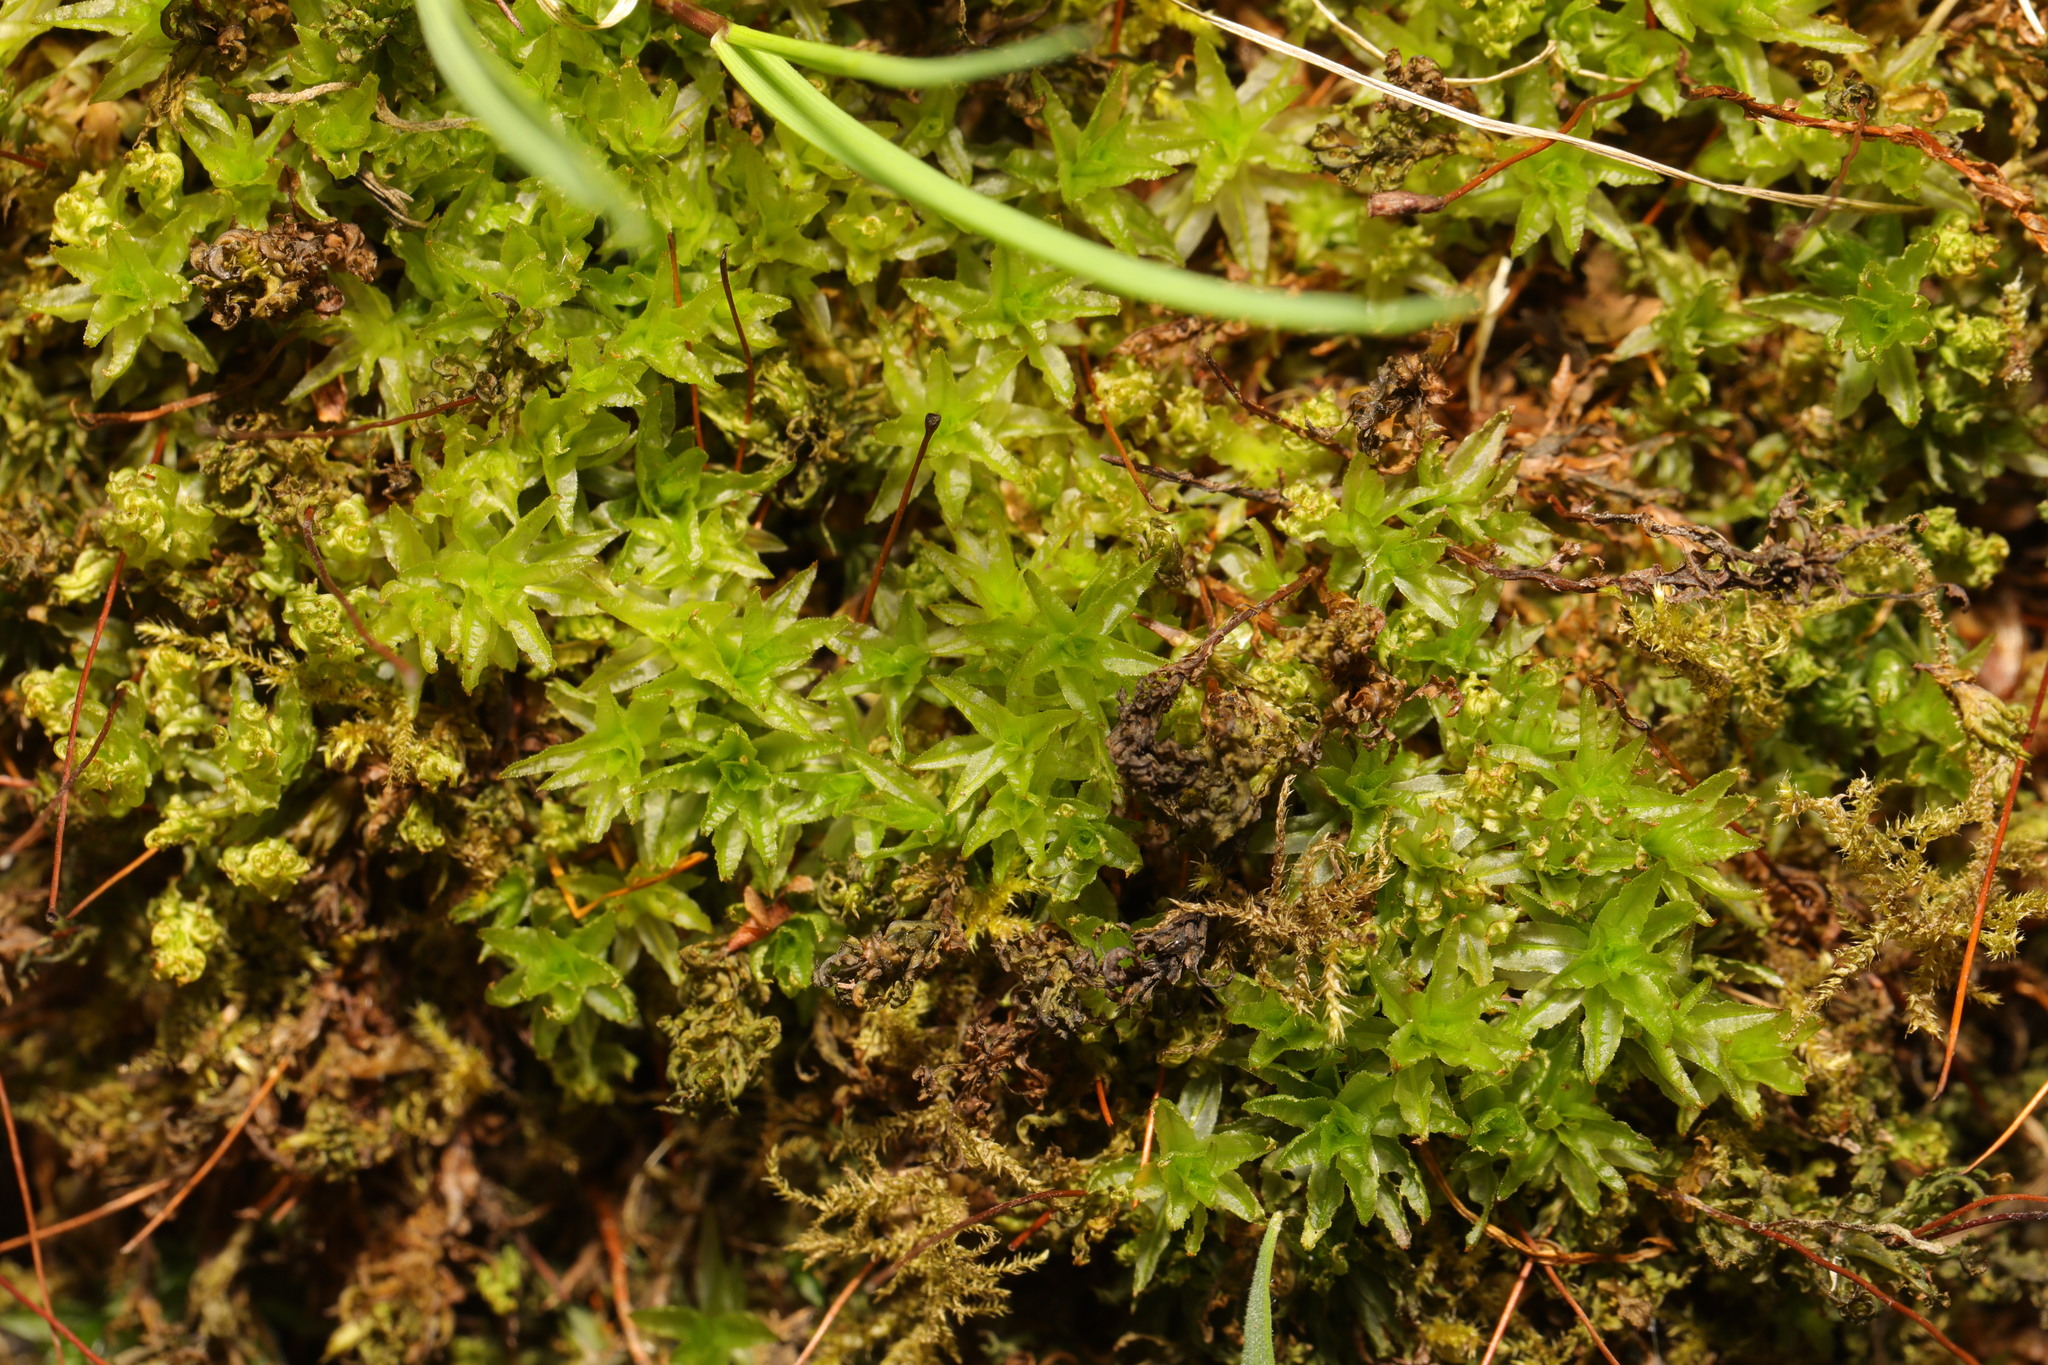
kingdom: Plantae
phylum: Bryophyta
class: Polytrichopsida
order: Polytrichales
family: Polytrichaceae
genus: Atrichum
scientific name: Atrichum undulatum
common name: Common smoothcap
